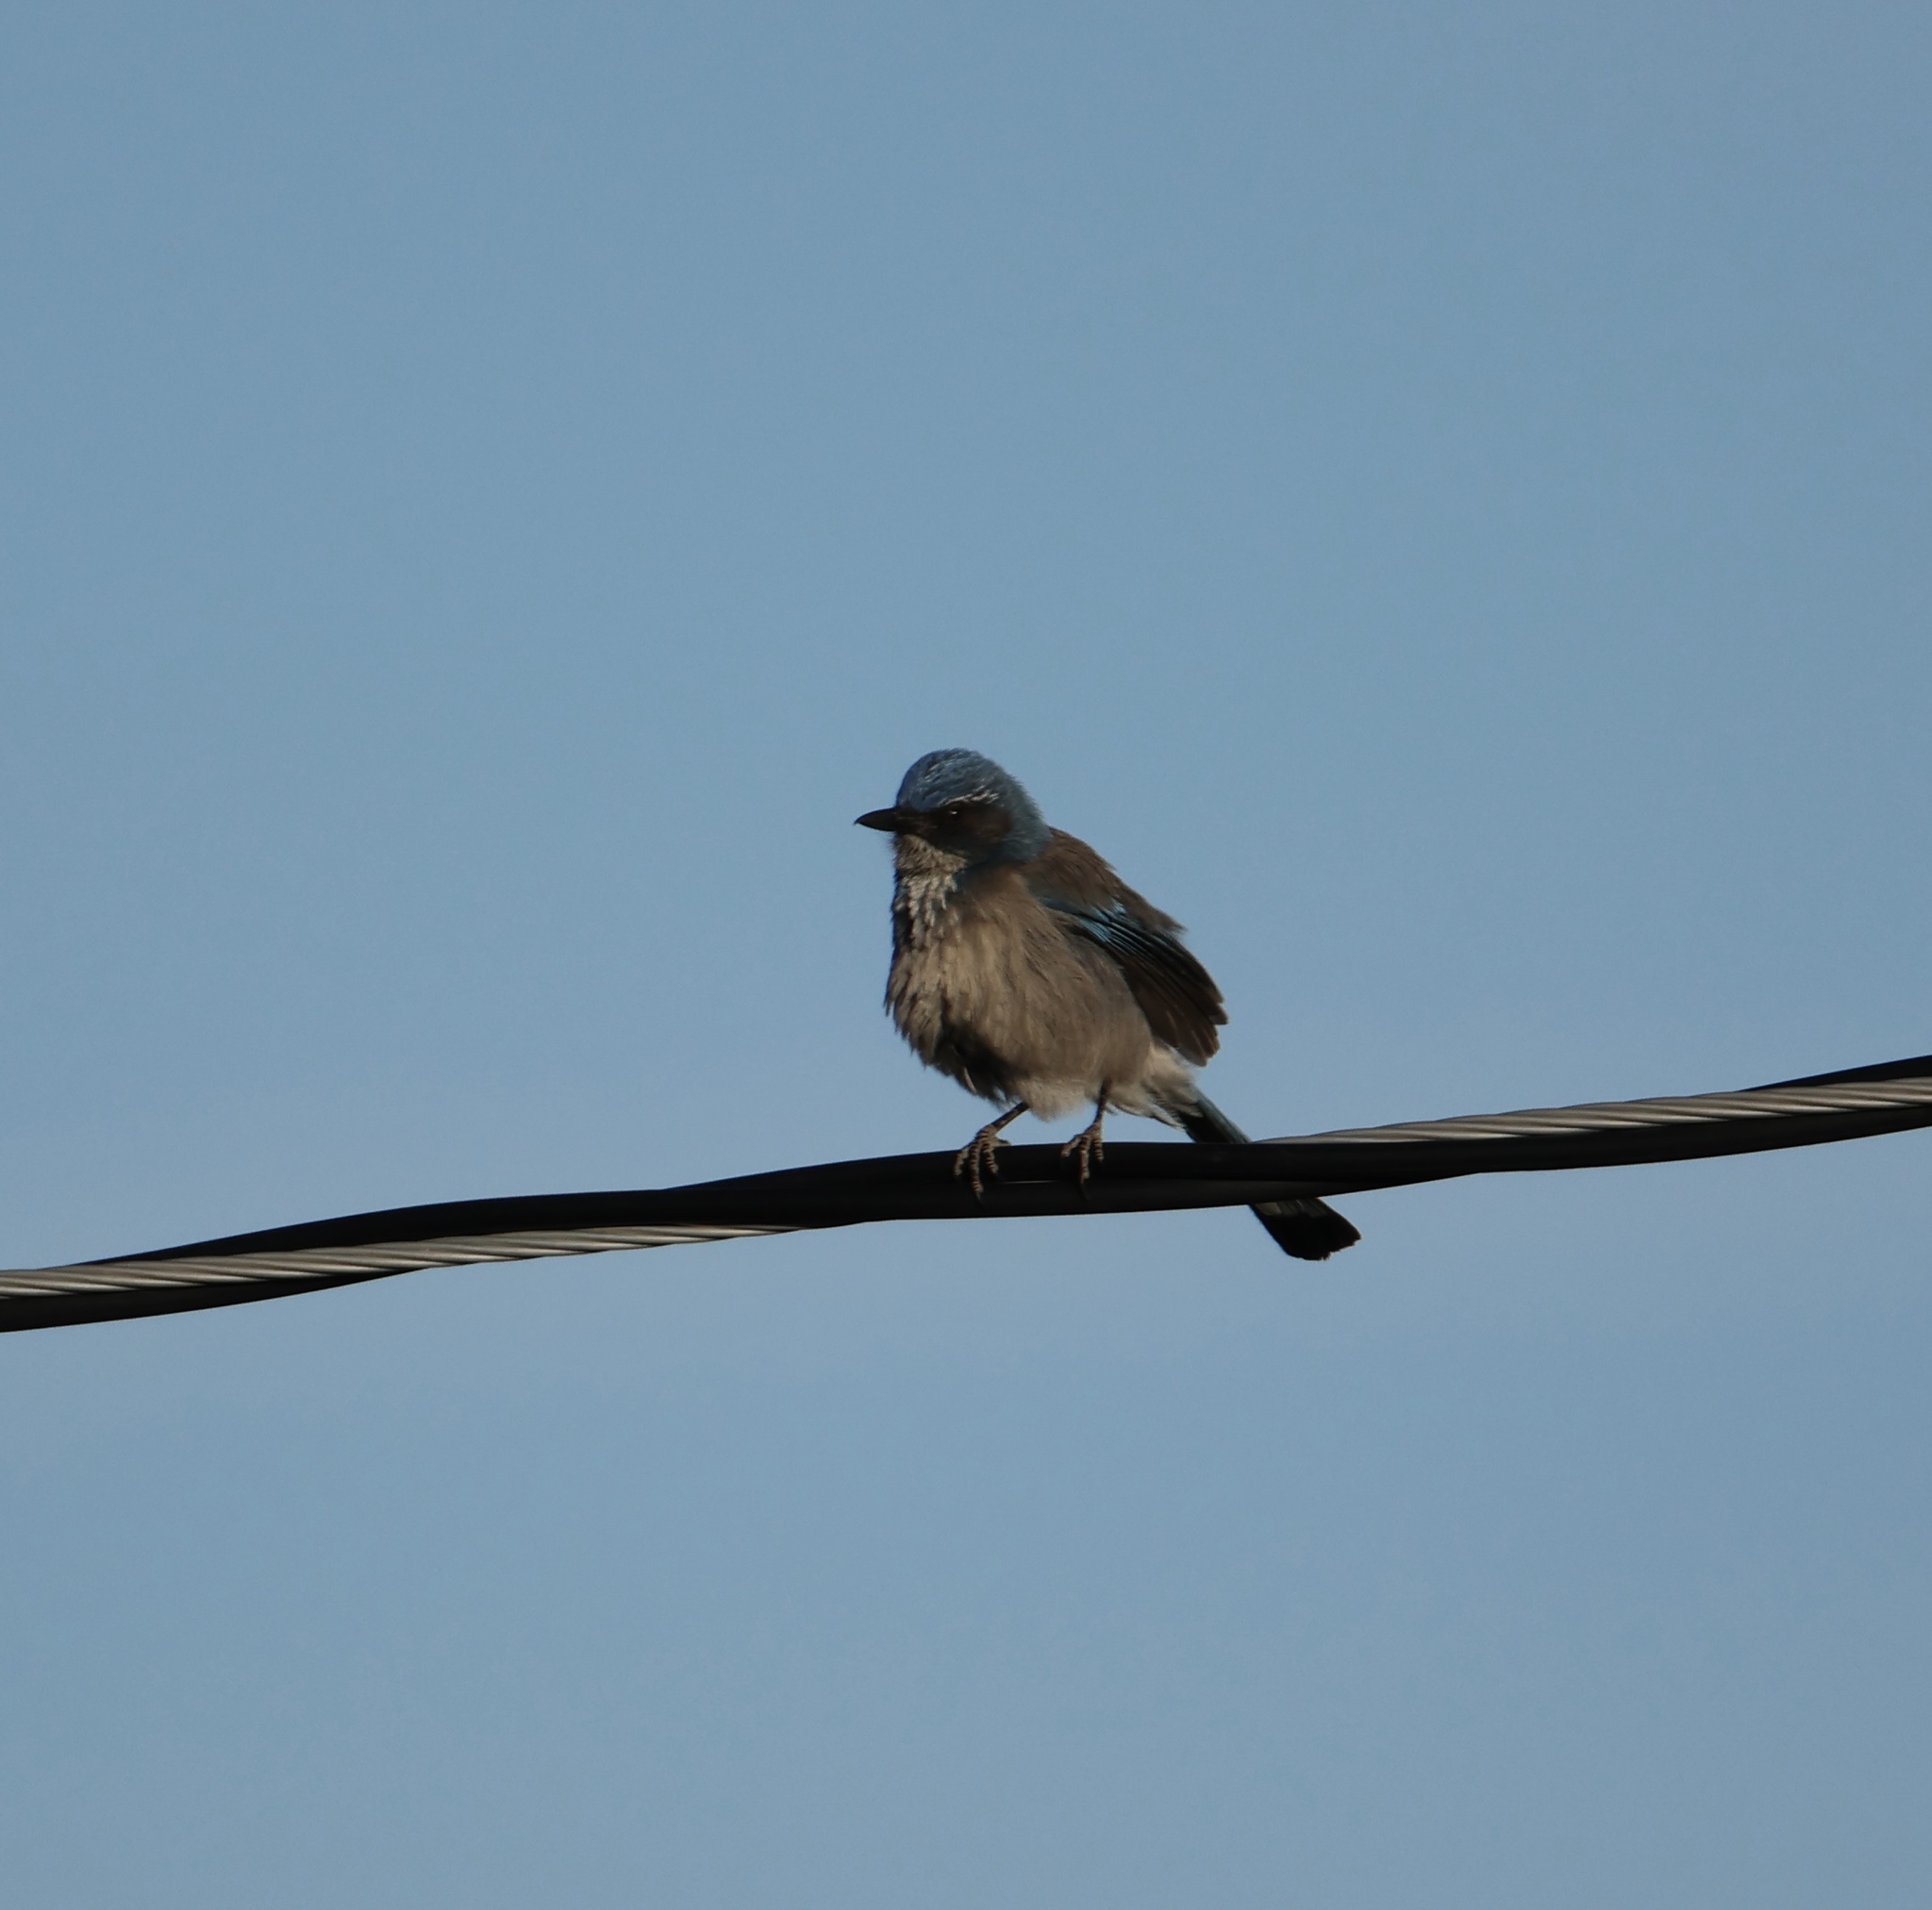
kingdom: Animalia
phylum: Chordata
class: Aves
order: Passeriformes
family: Corvidae
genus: Aphelocoma
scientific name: Aphelocoma californica
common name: California scrub-jay
